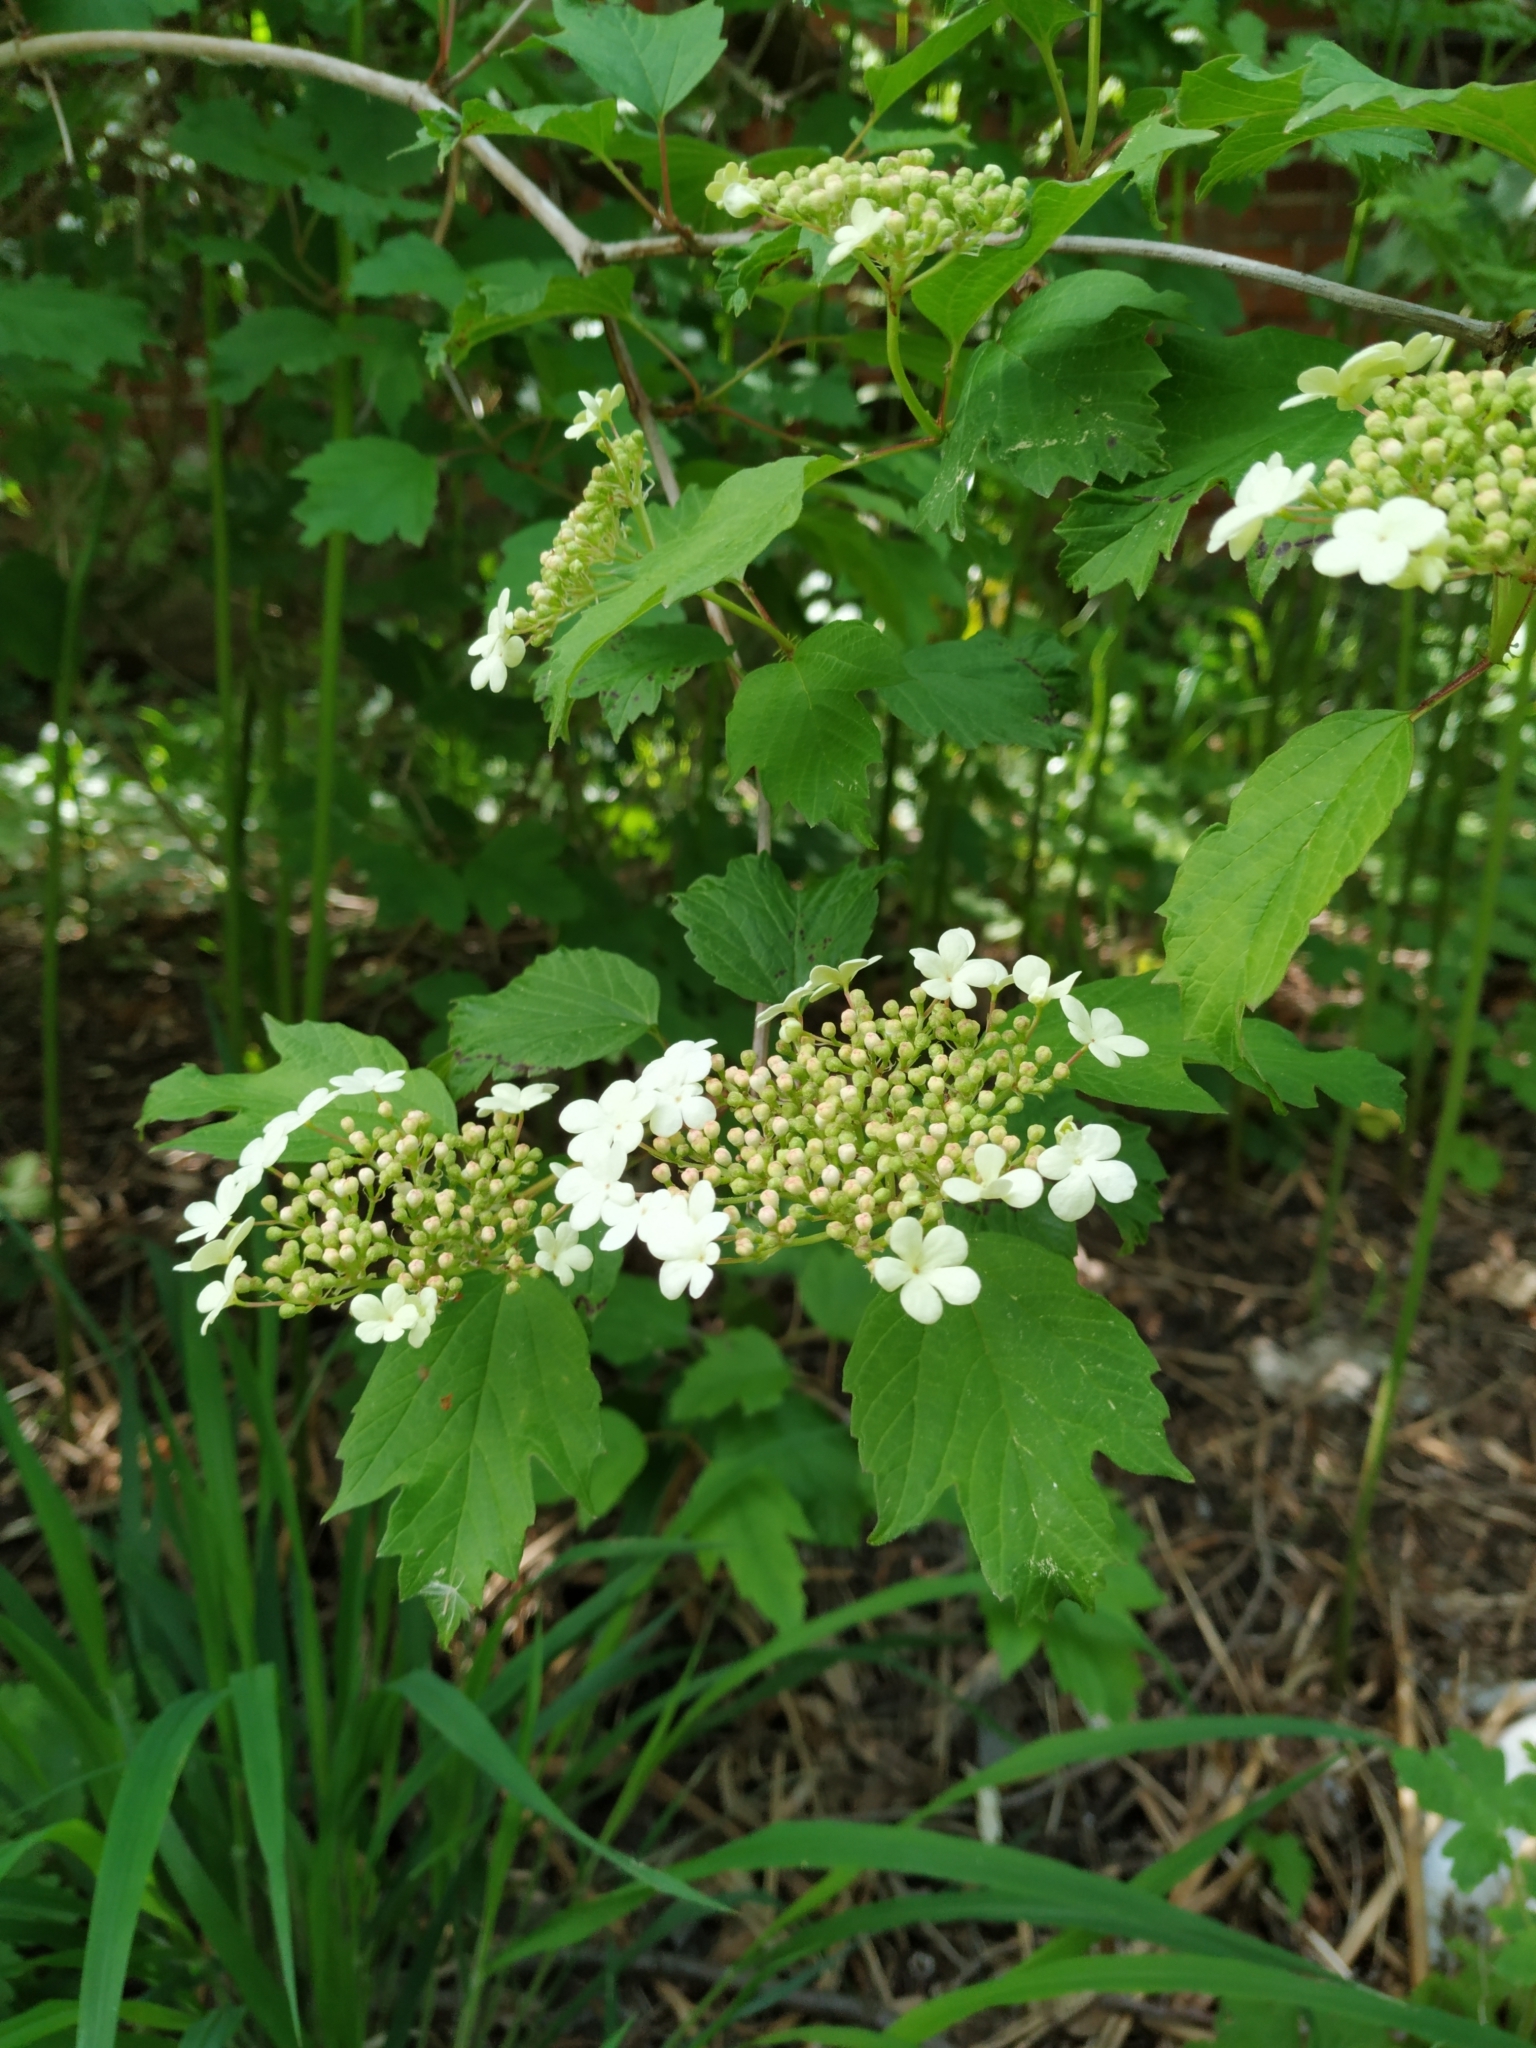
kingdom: Plantae
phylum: Tracheophyta
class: Magnoliopsida
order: Dipsacales
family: Viburnaceae
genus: Viburnum
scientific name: Viburnum opulus
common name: Guelder-rose
